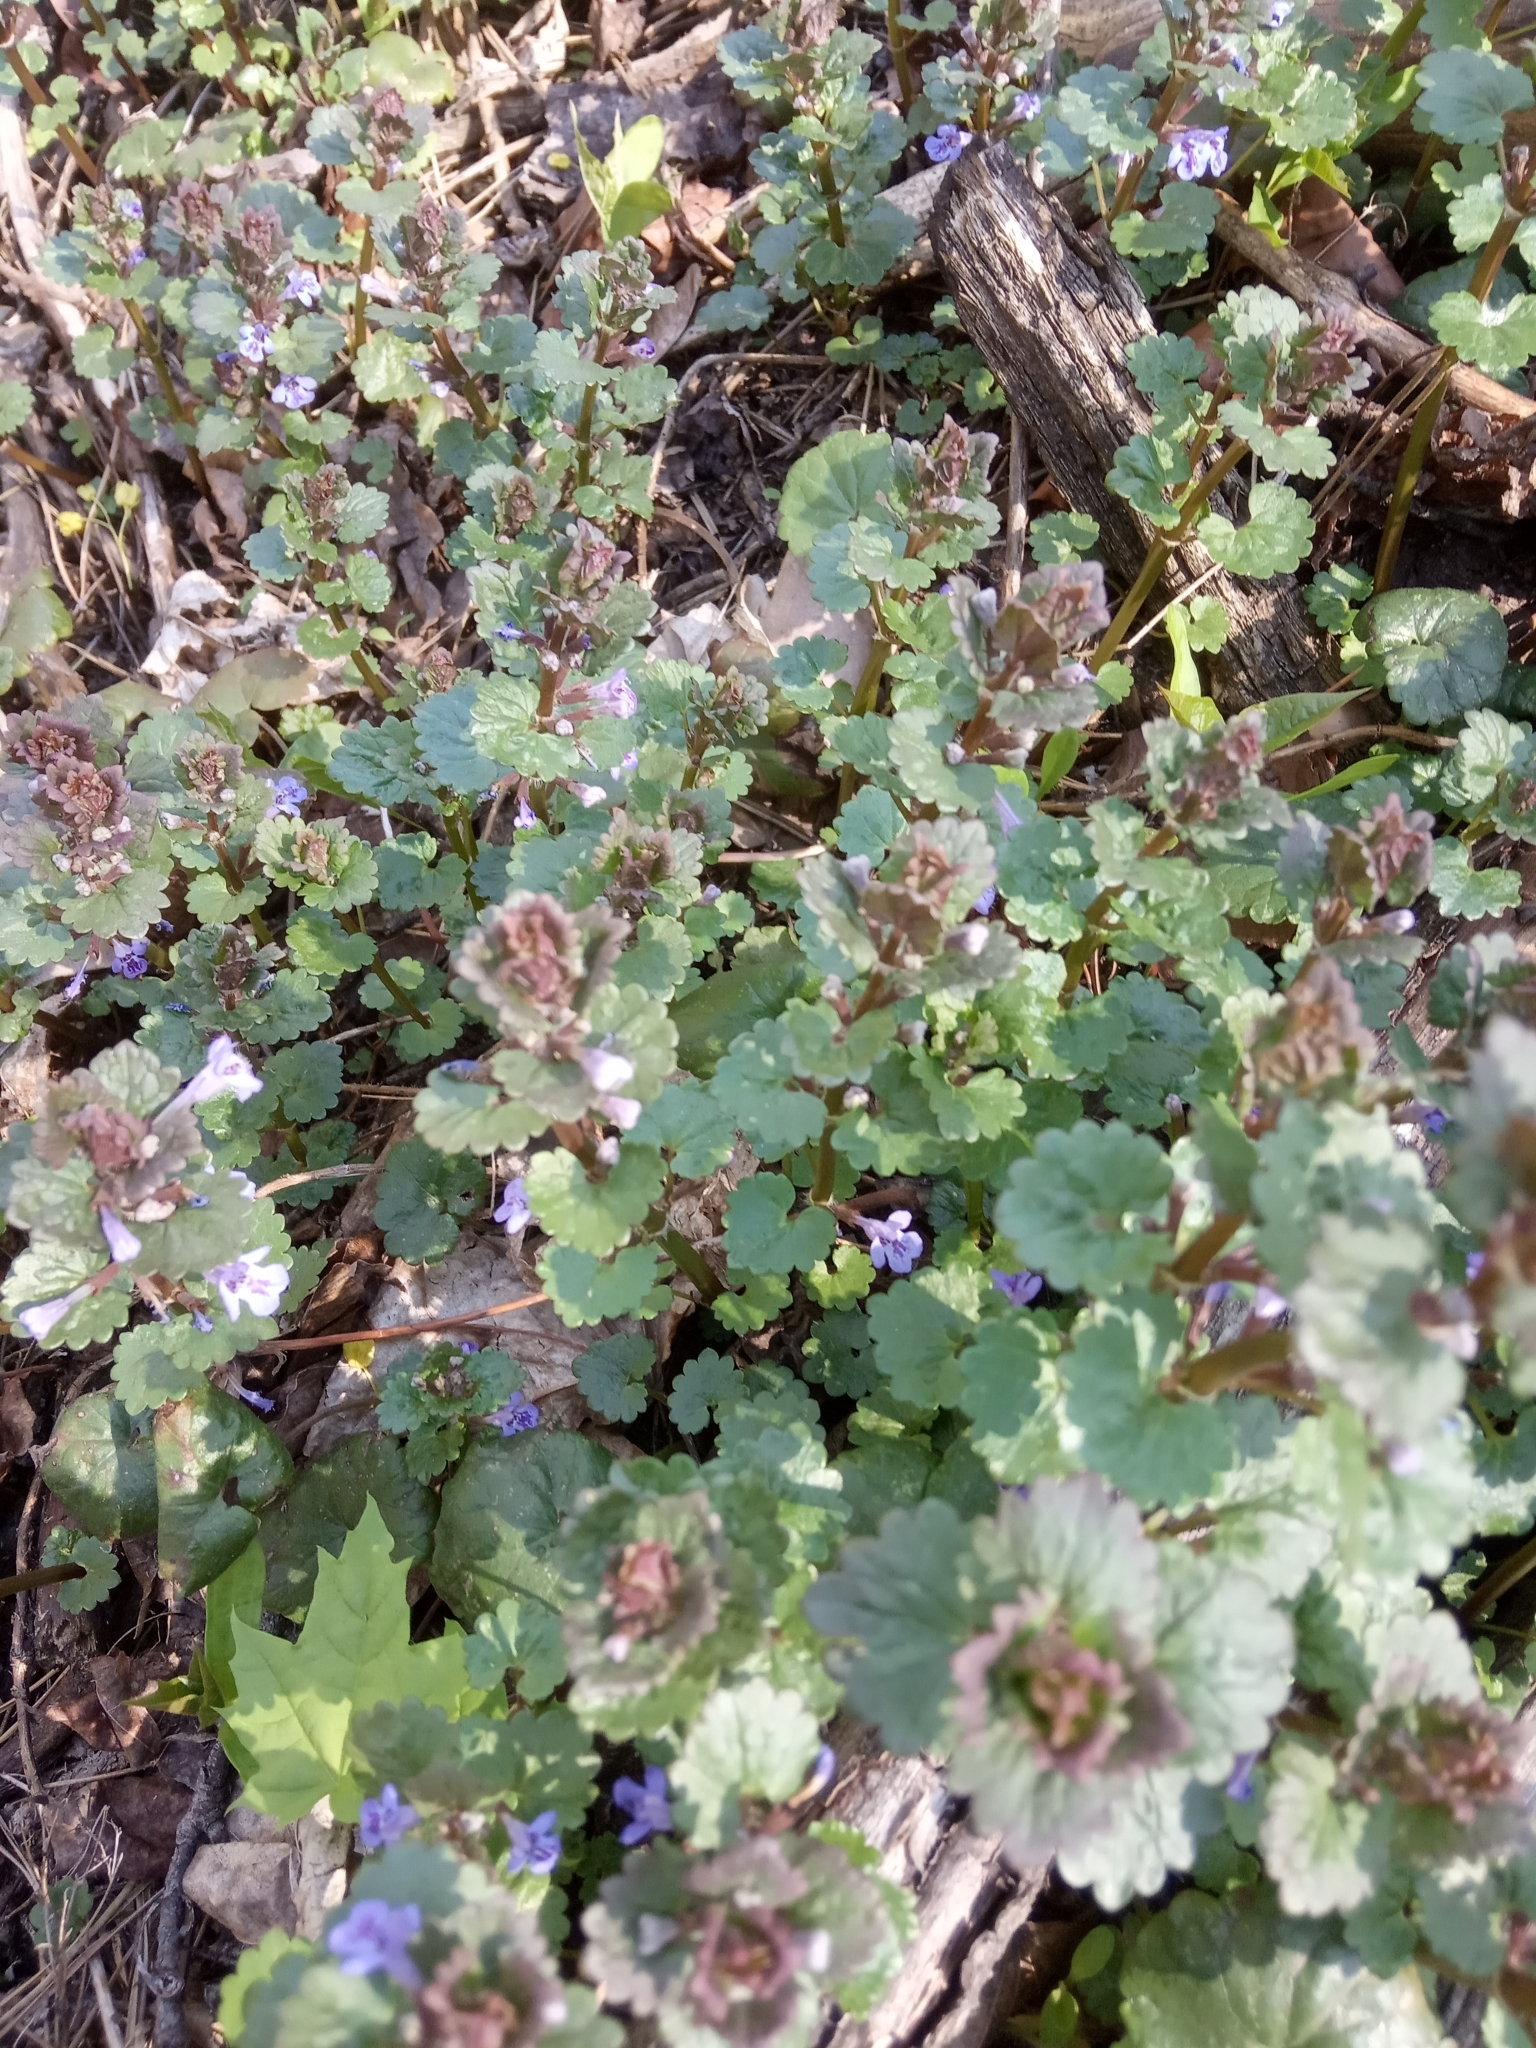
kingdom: Plantae
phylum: Tracheophyta
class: Magnoliopsida
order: Lamiales
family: Lamiaceae
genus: Glechoma
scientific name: Glechoma hederacea
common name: Ground ivy
